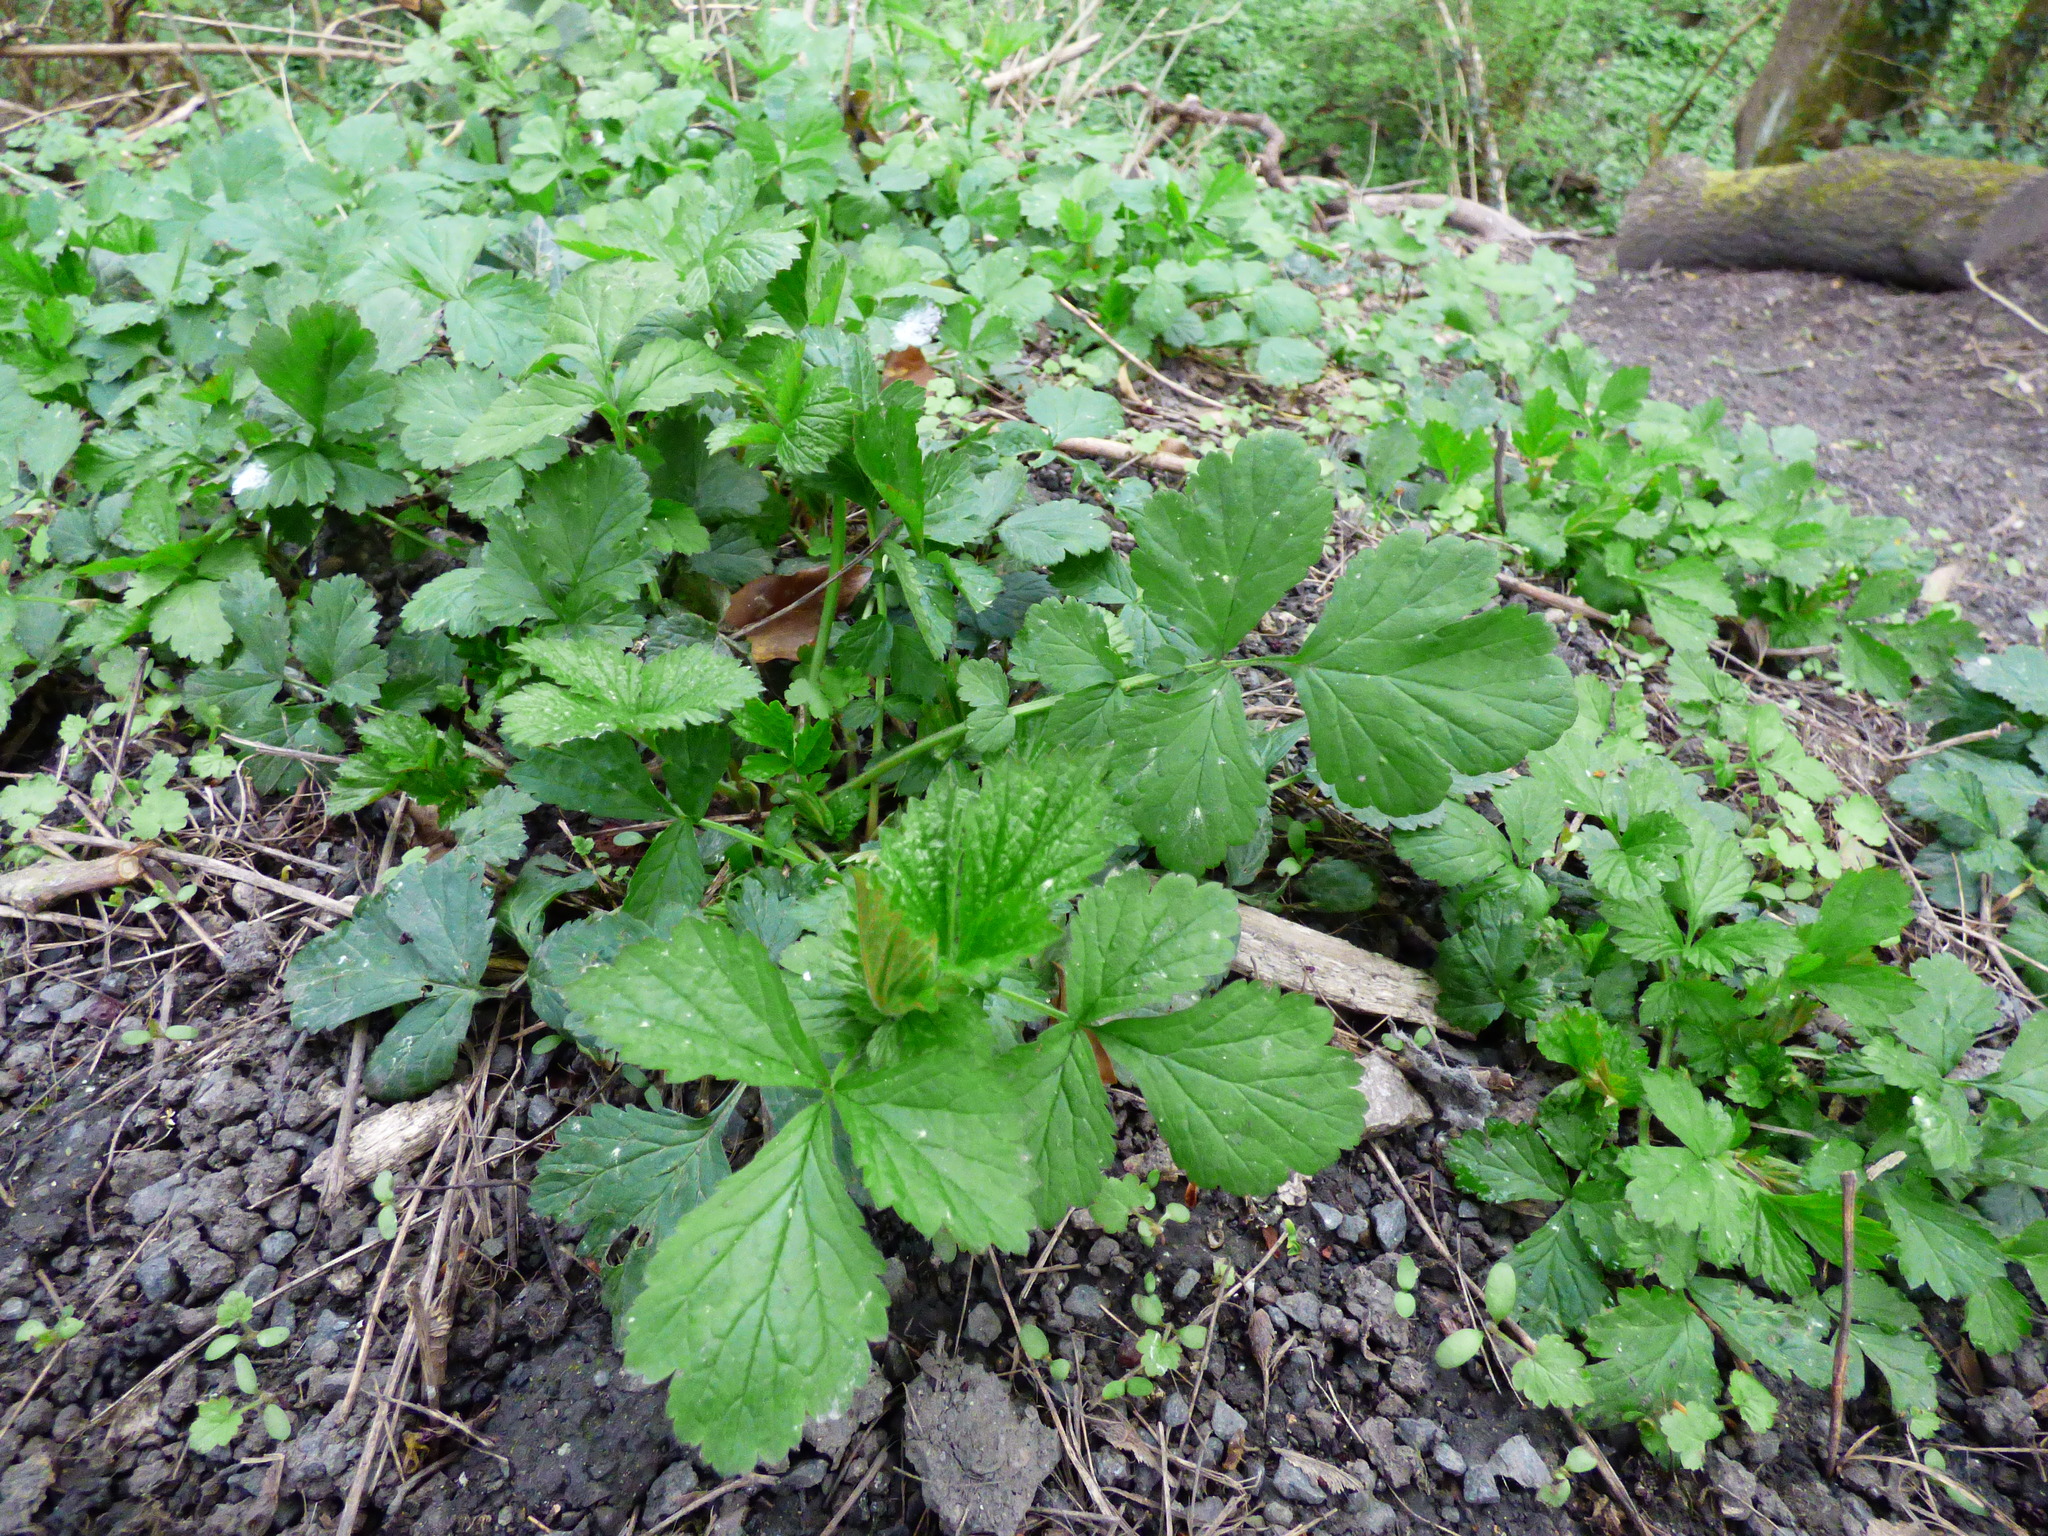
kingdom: Plantae
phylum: Tracheophyta
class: Magnoliopsida
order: Rosales
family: Rosaceae
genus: Geum
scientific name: Geum urbanum
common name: Wood avens
